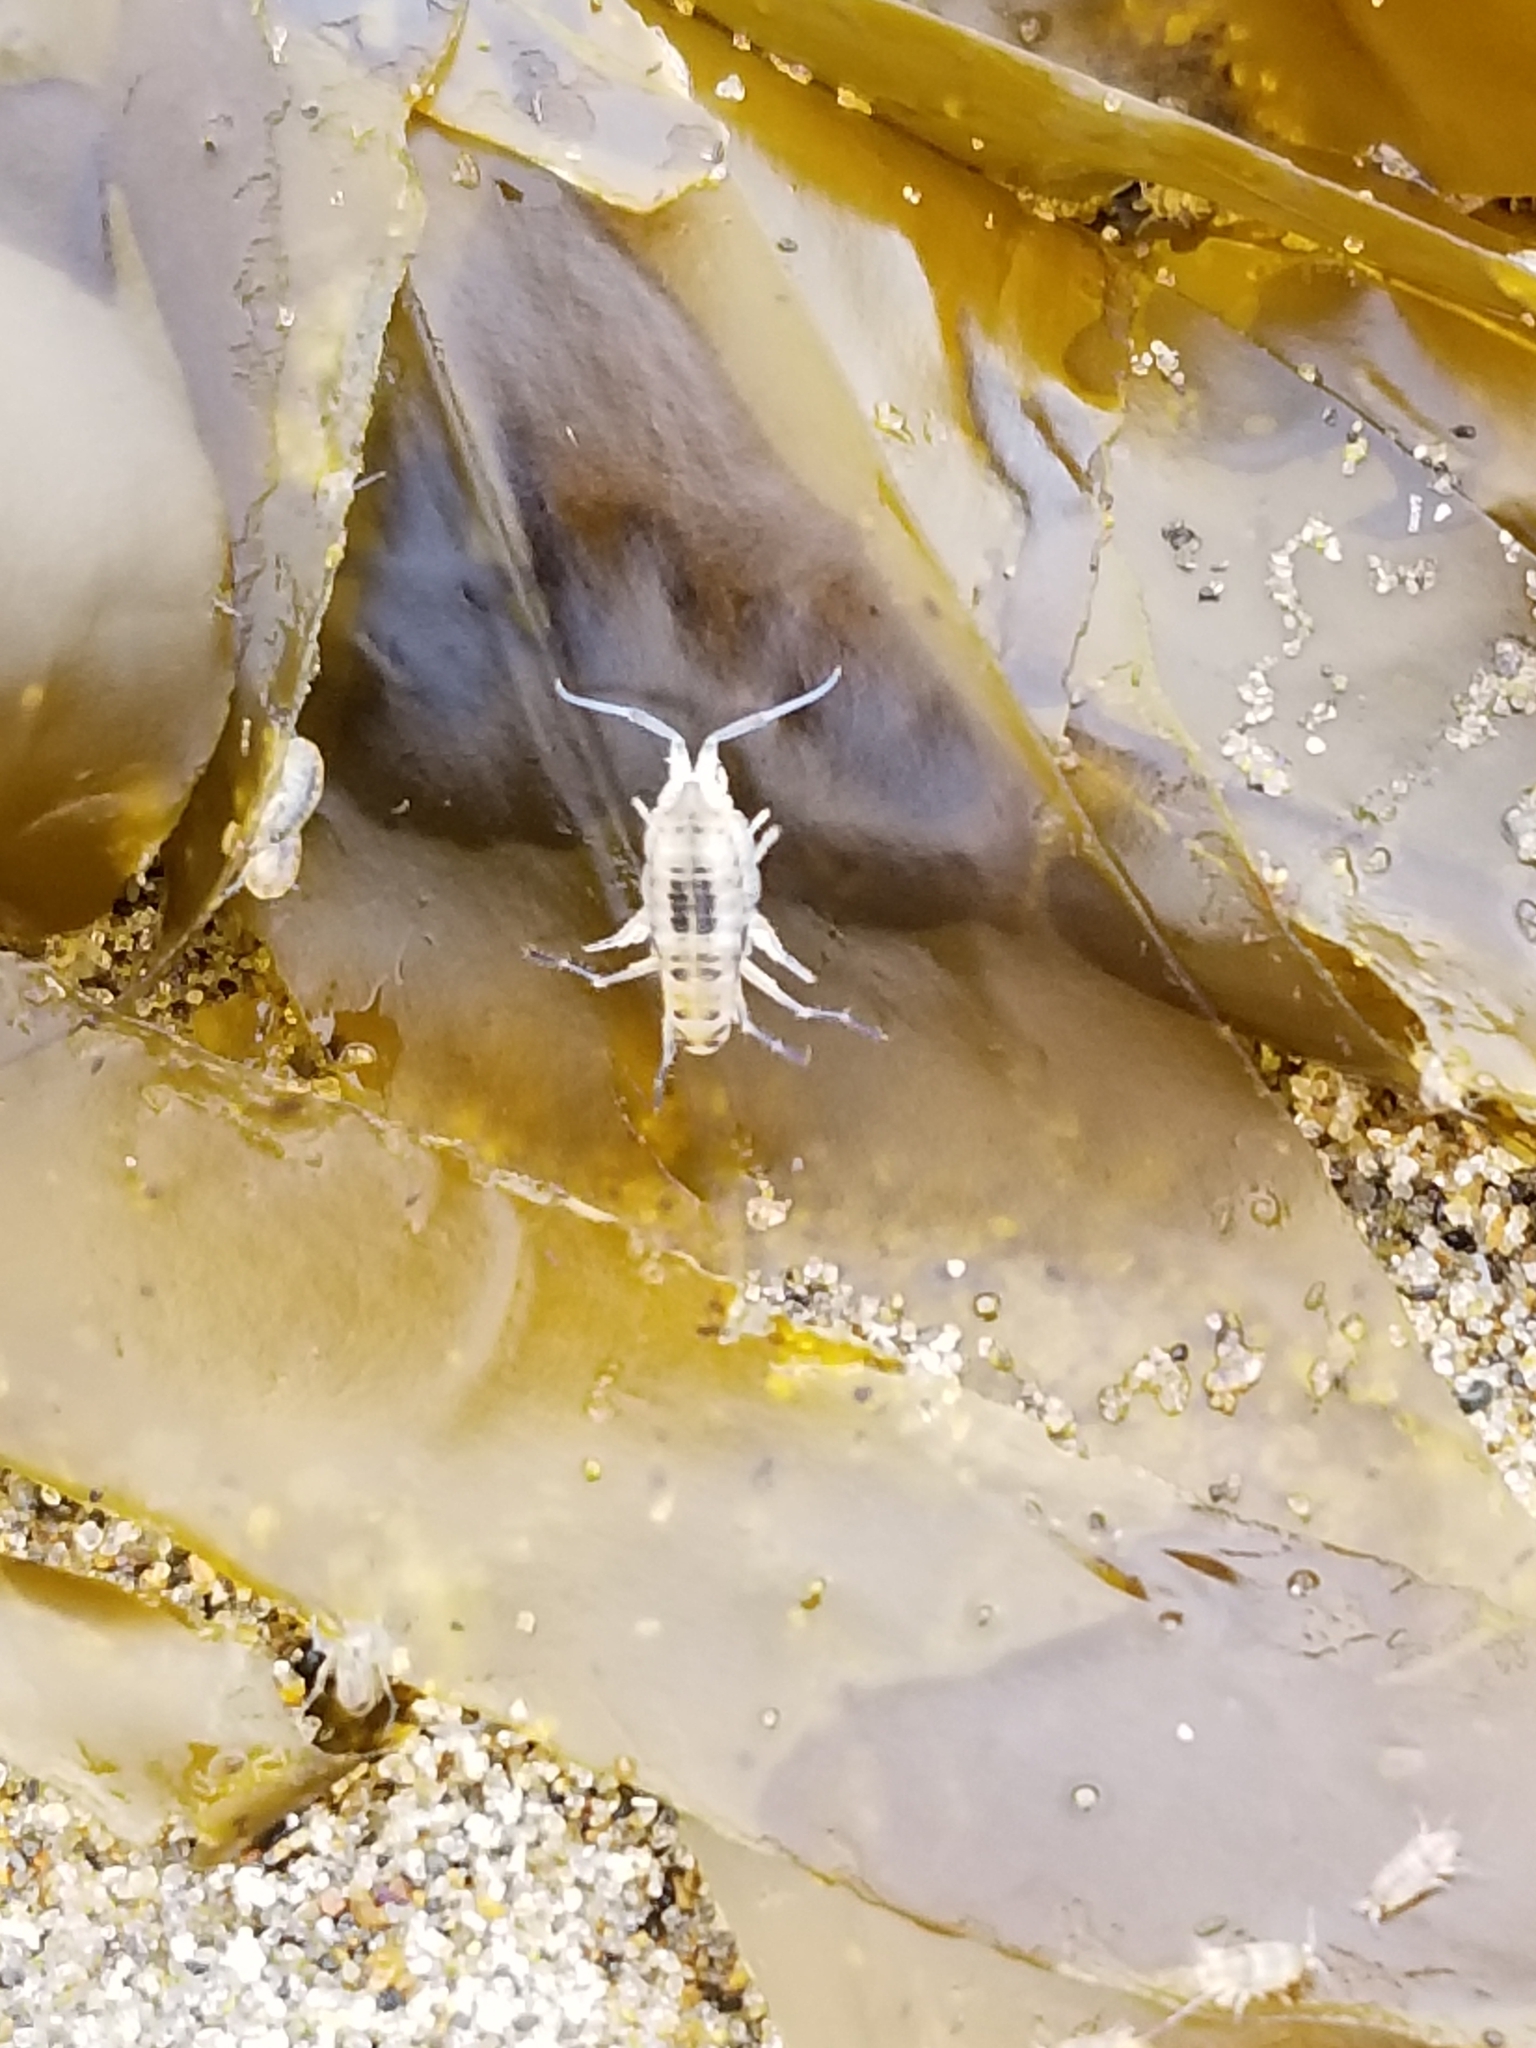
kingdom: Animalia
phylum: Arthropoda
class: Malacostraca
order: Amphipoda
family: Talitridae
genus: Megalorchestia
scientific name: Megalorchestia columbiana
